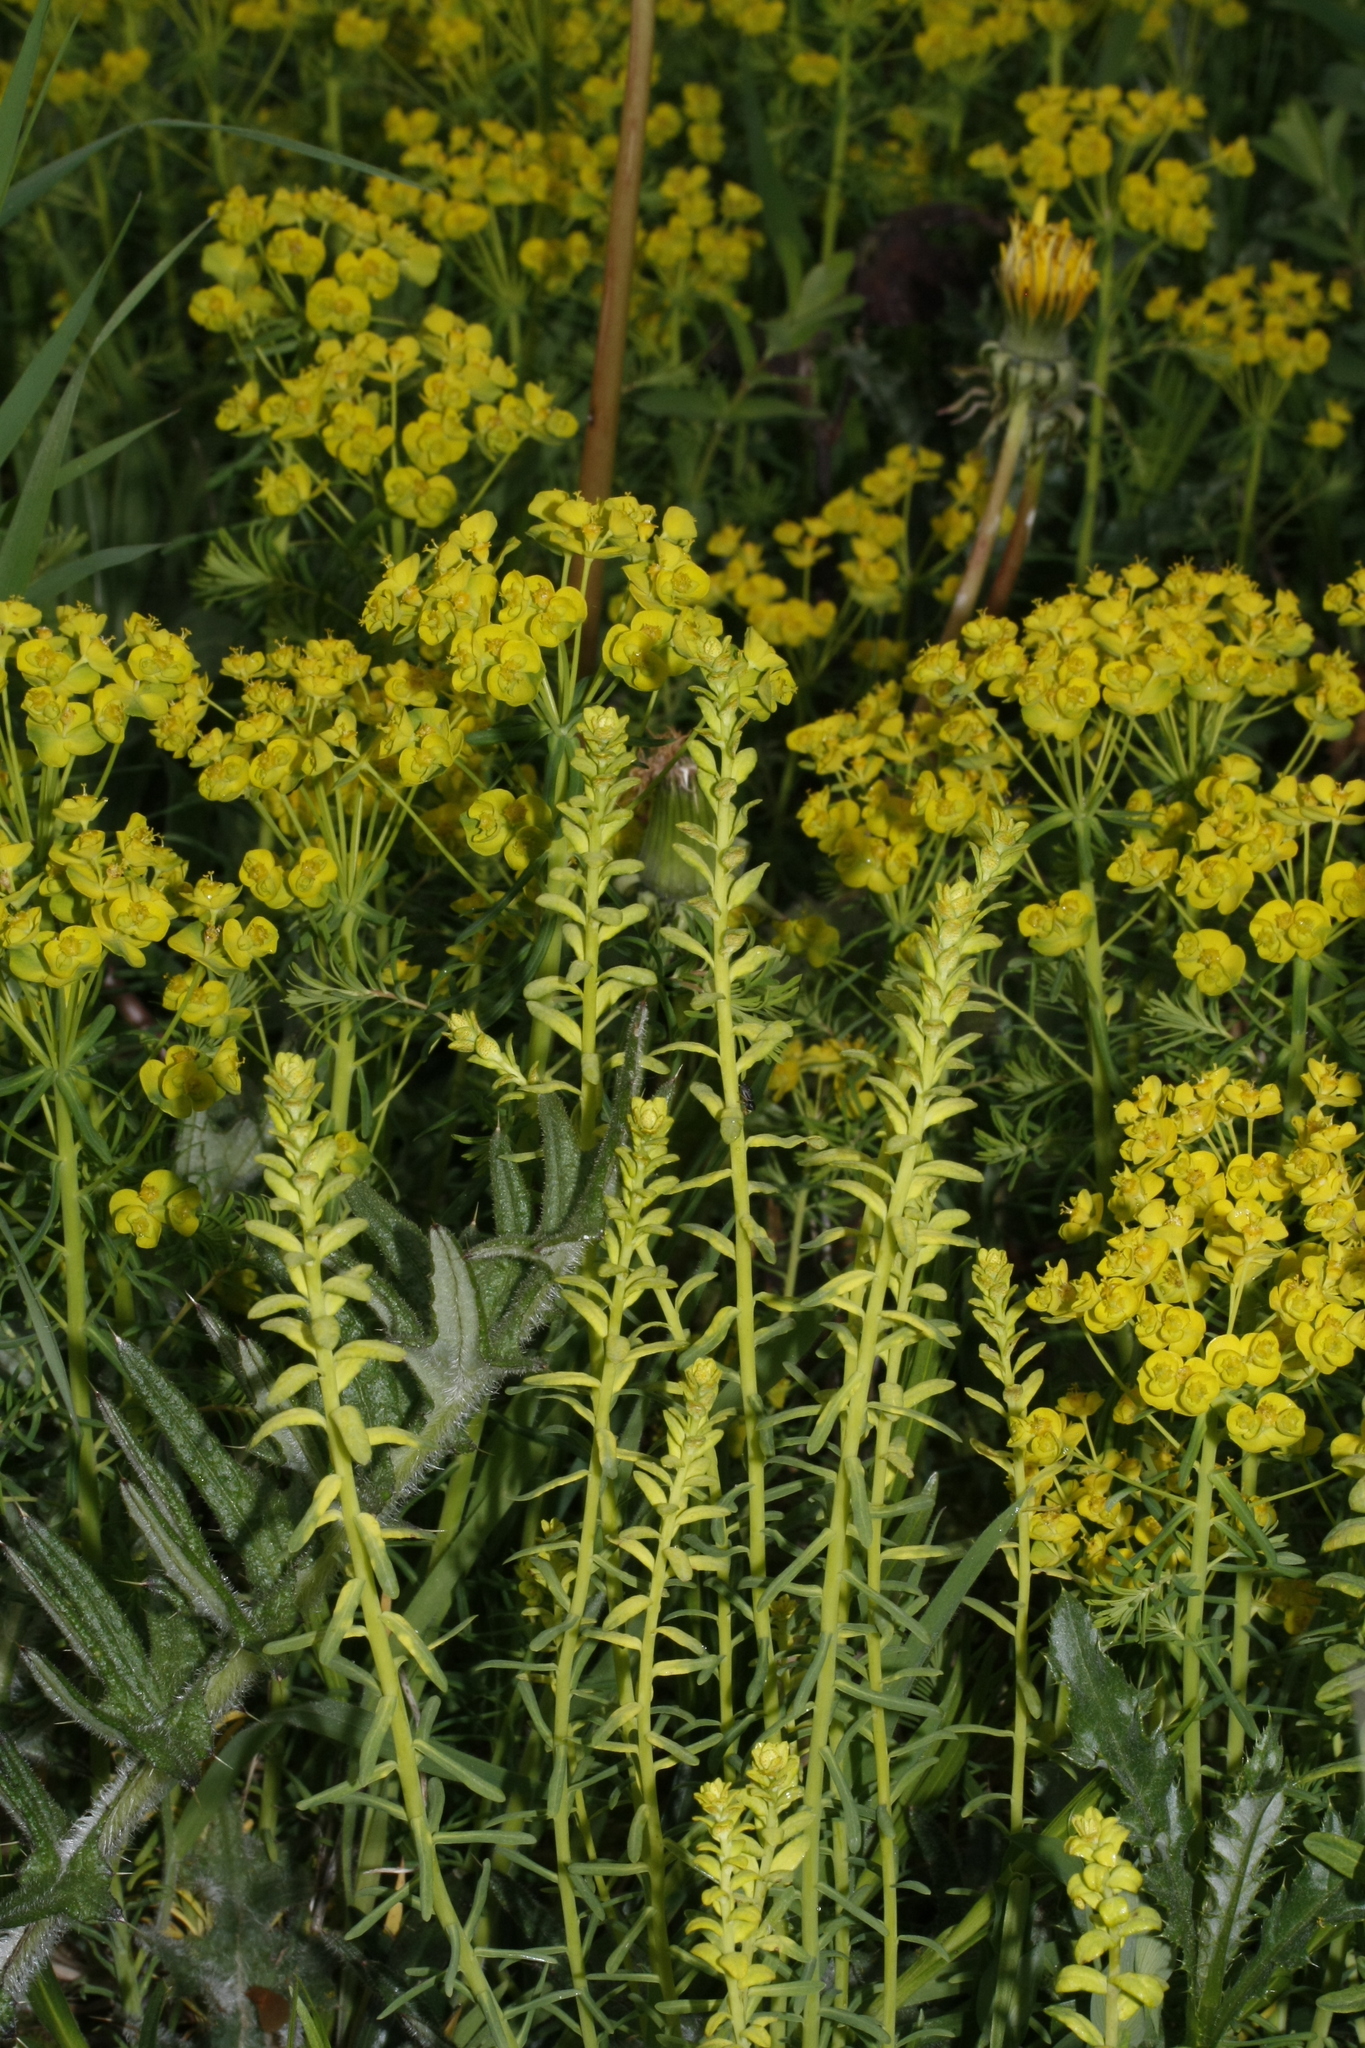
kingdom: Plantae
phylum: Tracheophyta
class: Magnoliopsida
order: Malpighiales
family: Euphorbiaceae
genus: Euphorbia
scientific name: Euphorbia cyparissias
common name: Cypress spurge
